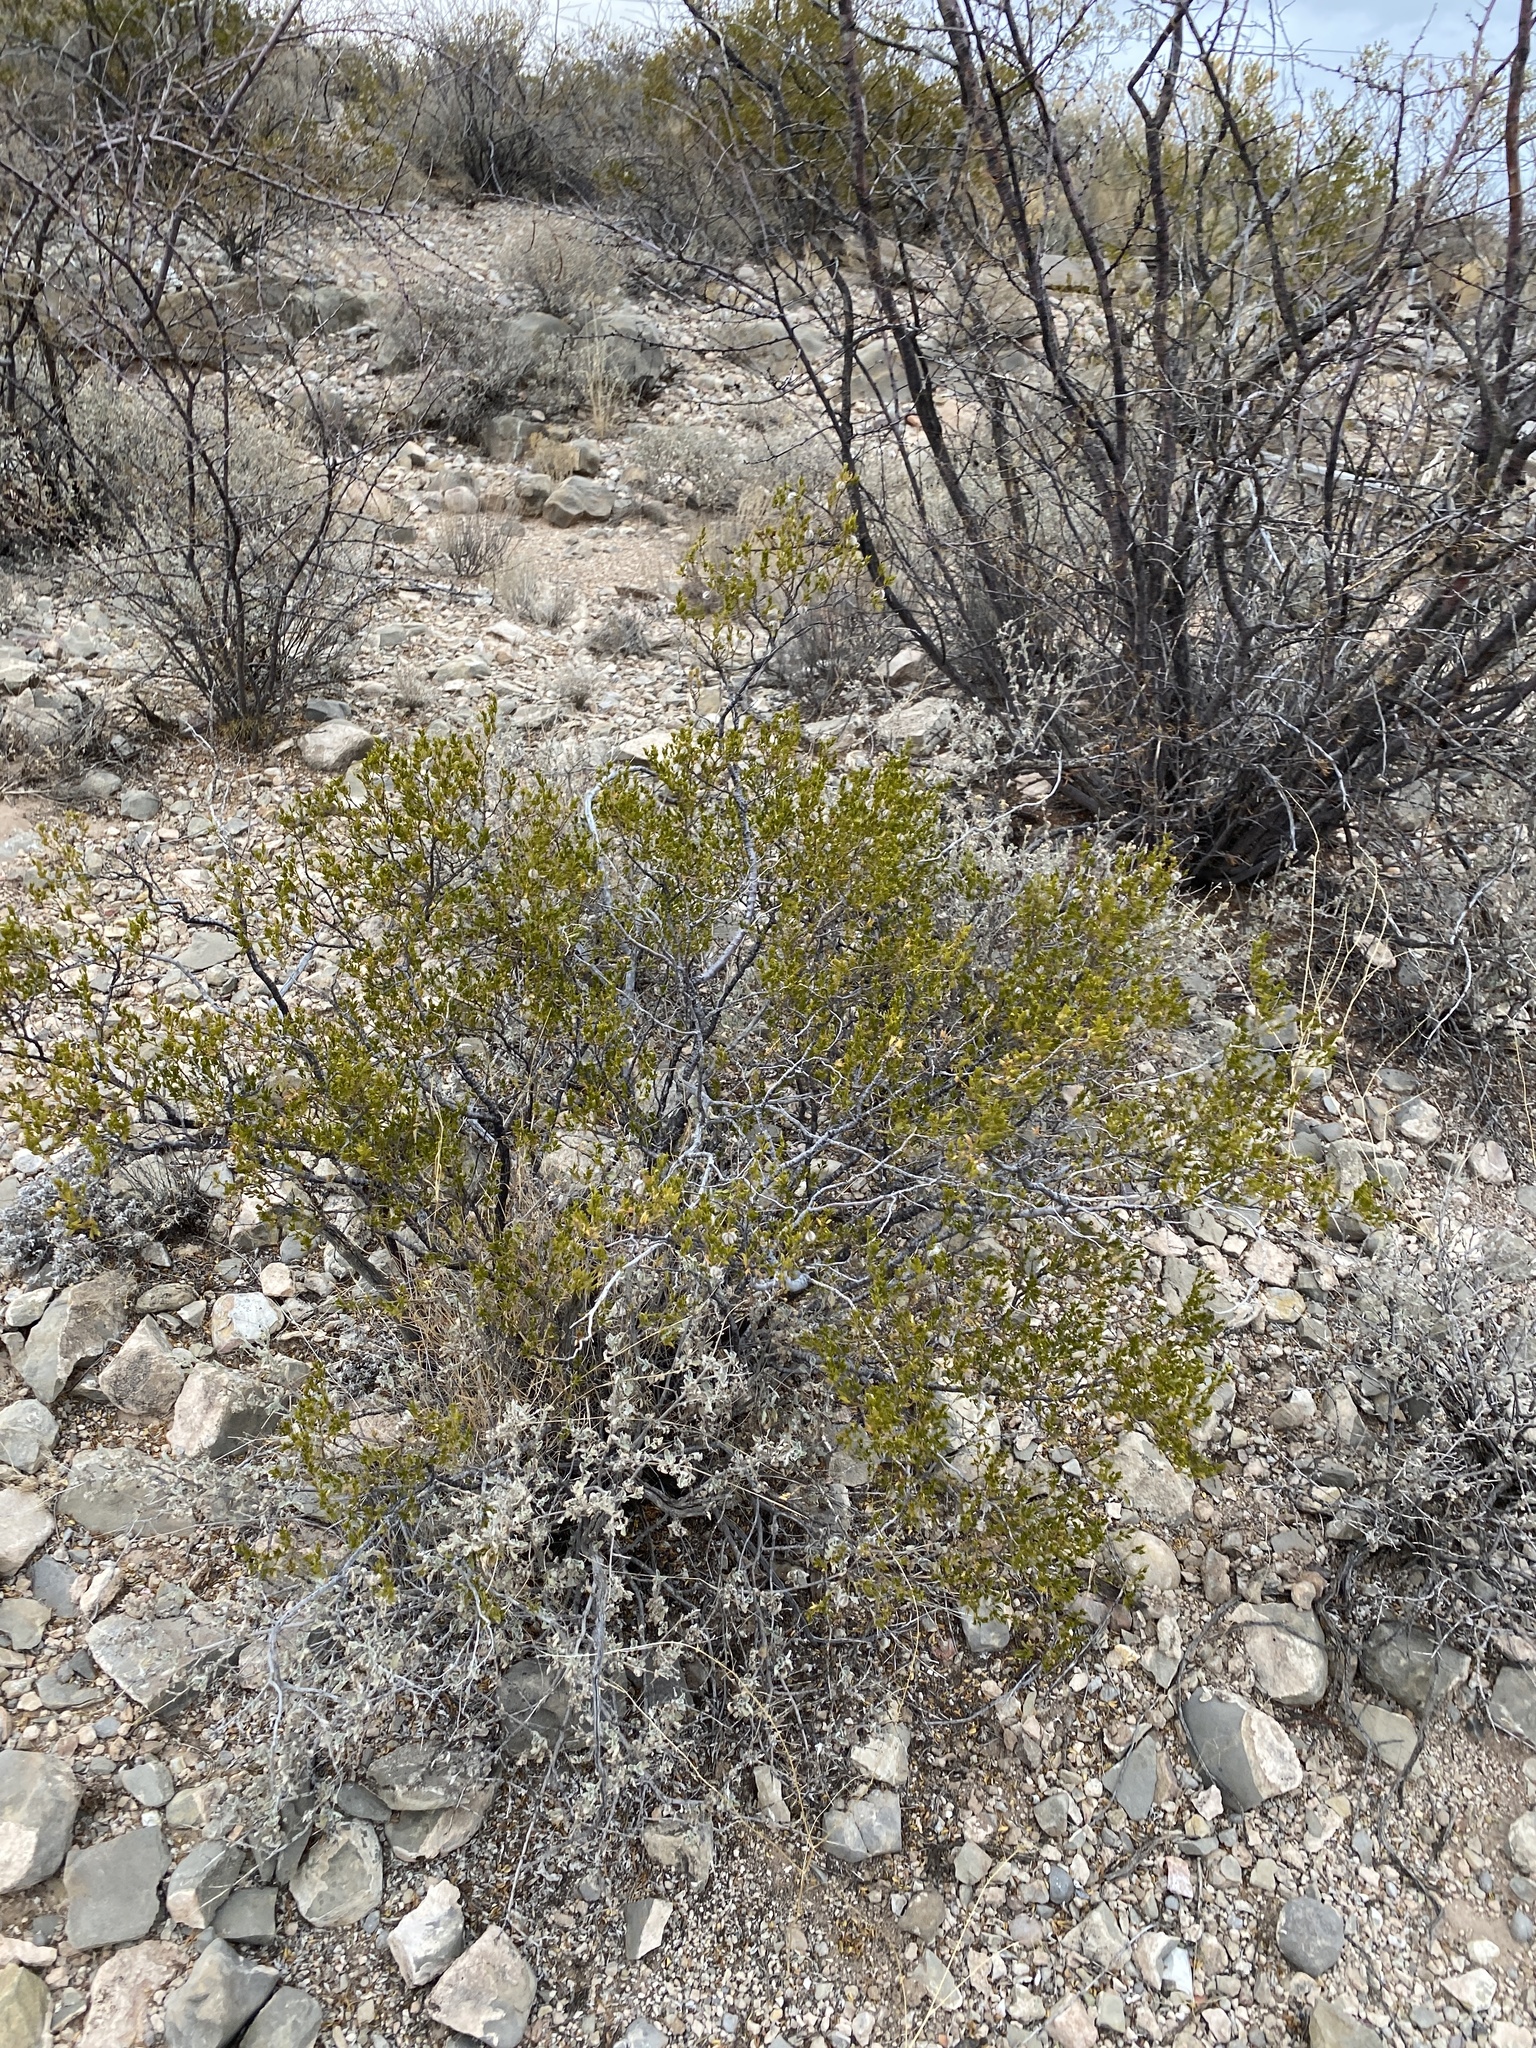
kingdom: Plantae
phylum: Tracheophyta
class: Magnoliopsida
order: Zygophyllales
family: Zygophyllaceae
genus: Larrea
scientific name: Larrea tridentata
